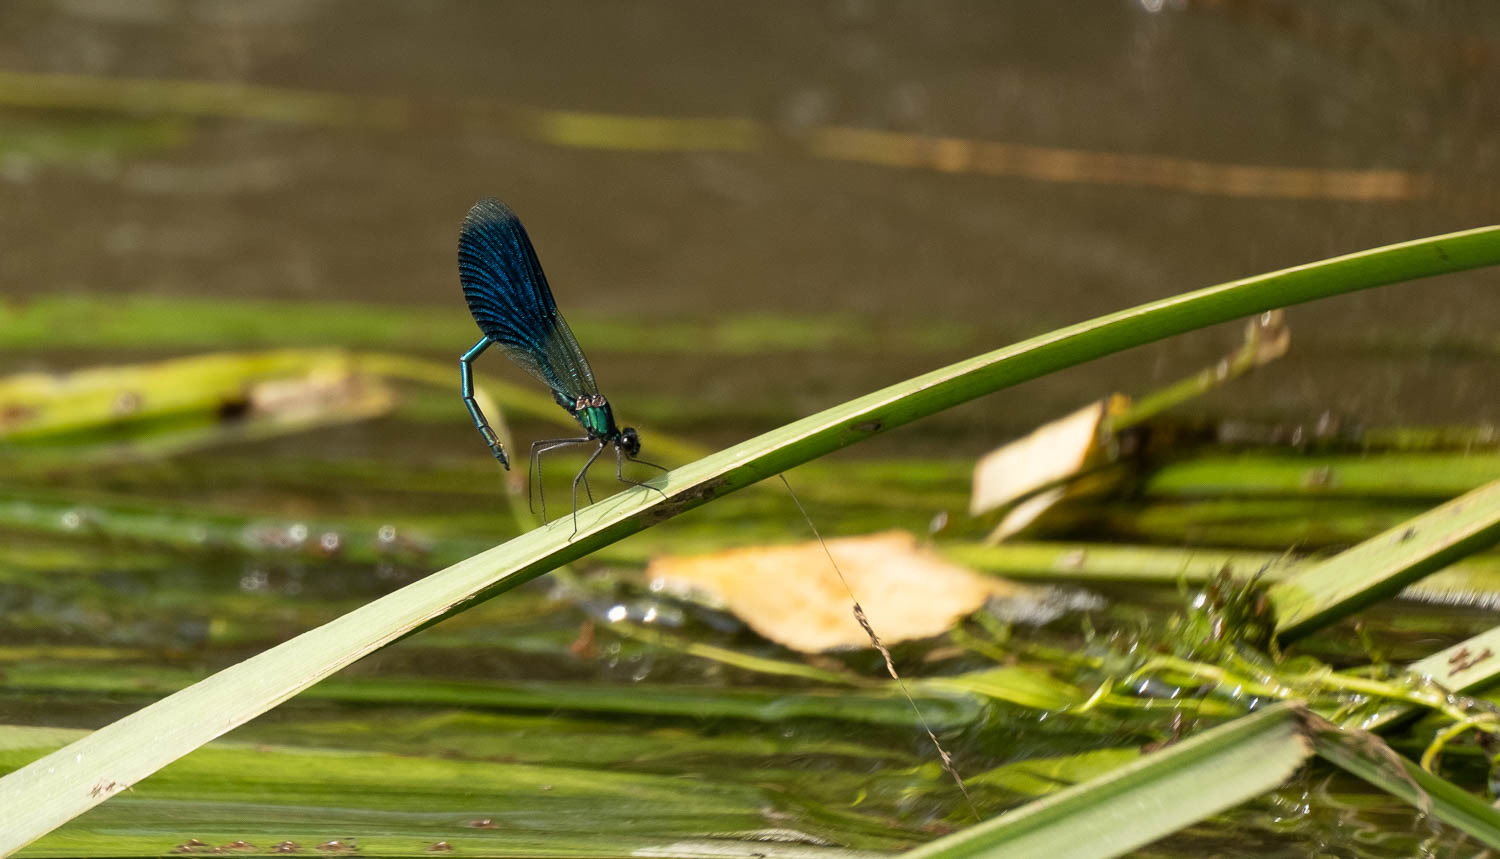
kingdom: Animalia
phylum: Arthropoda
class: Insecta
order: Odonata
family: Calopterygidae
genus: Calopteryx
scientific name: Calopteryx splendens
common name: Banded demoiselle
